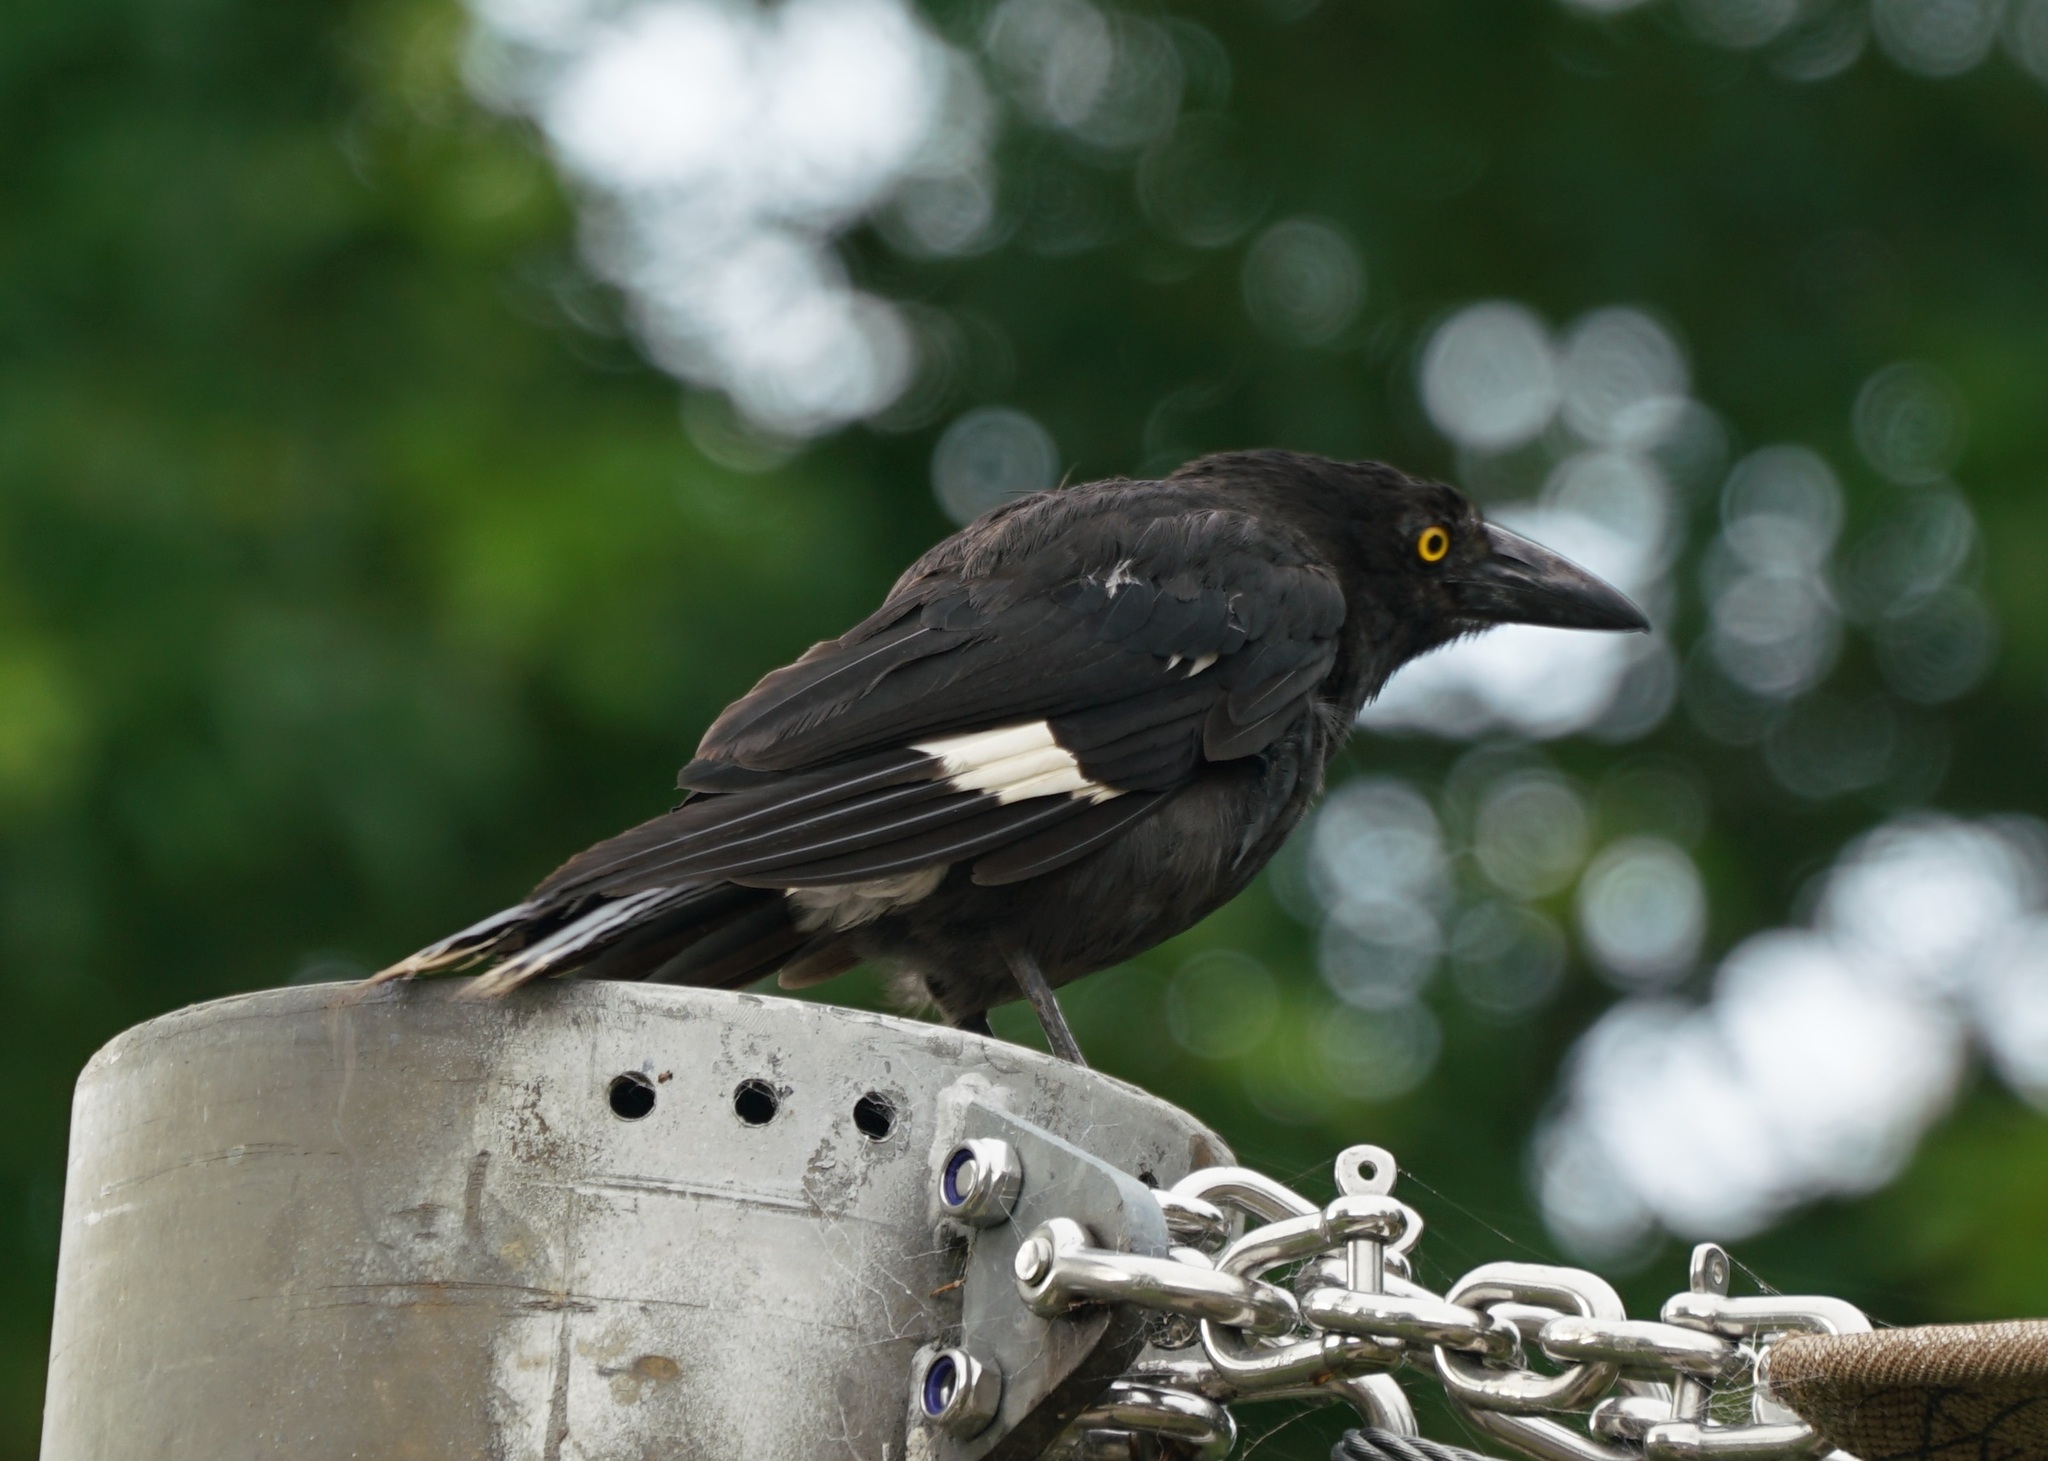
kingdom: Animalia
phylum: Chordata
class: Aves
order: Passeriformes
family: Cracticidae
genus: Strepera
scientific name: Strepera graculina
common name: Pied currawong
